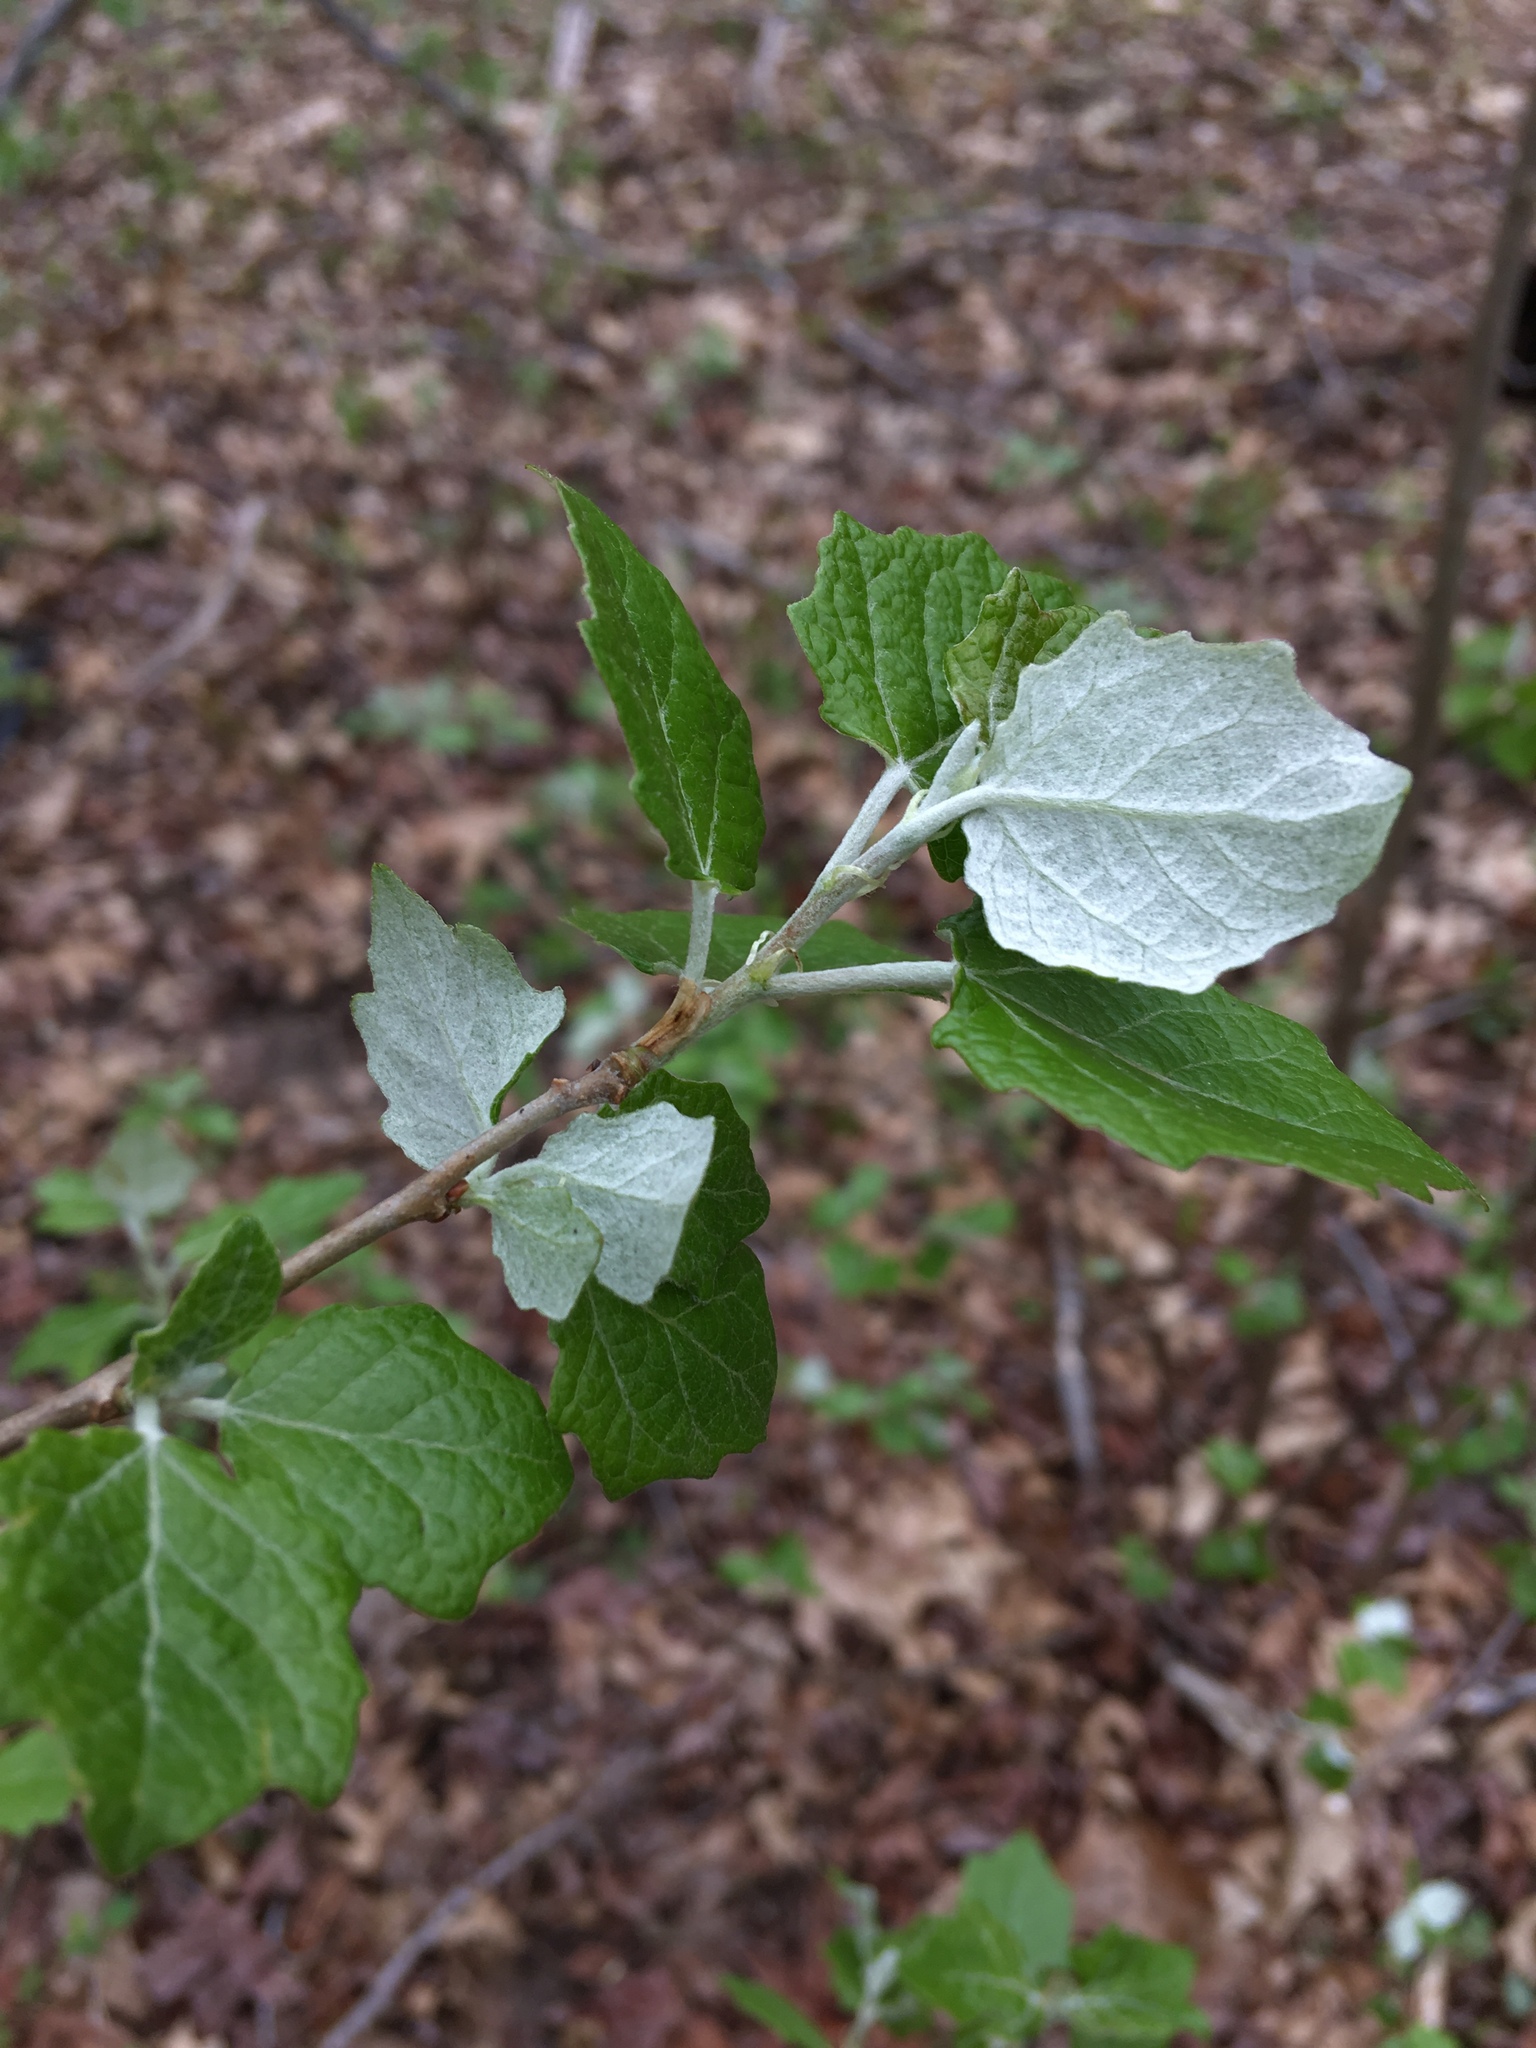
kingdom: Plantae
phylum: Tracheophyta
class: Magnoliopsida
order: Malpighiales
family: Salicaceae
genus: Populus
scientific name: Populus grandidentata
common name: Bigtooth aspen
